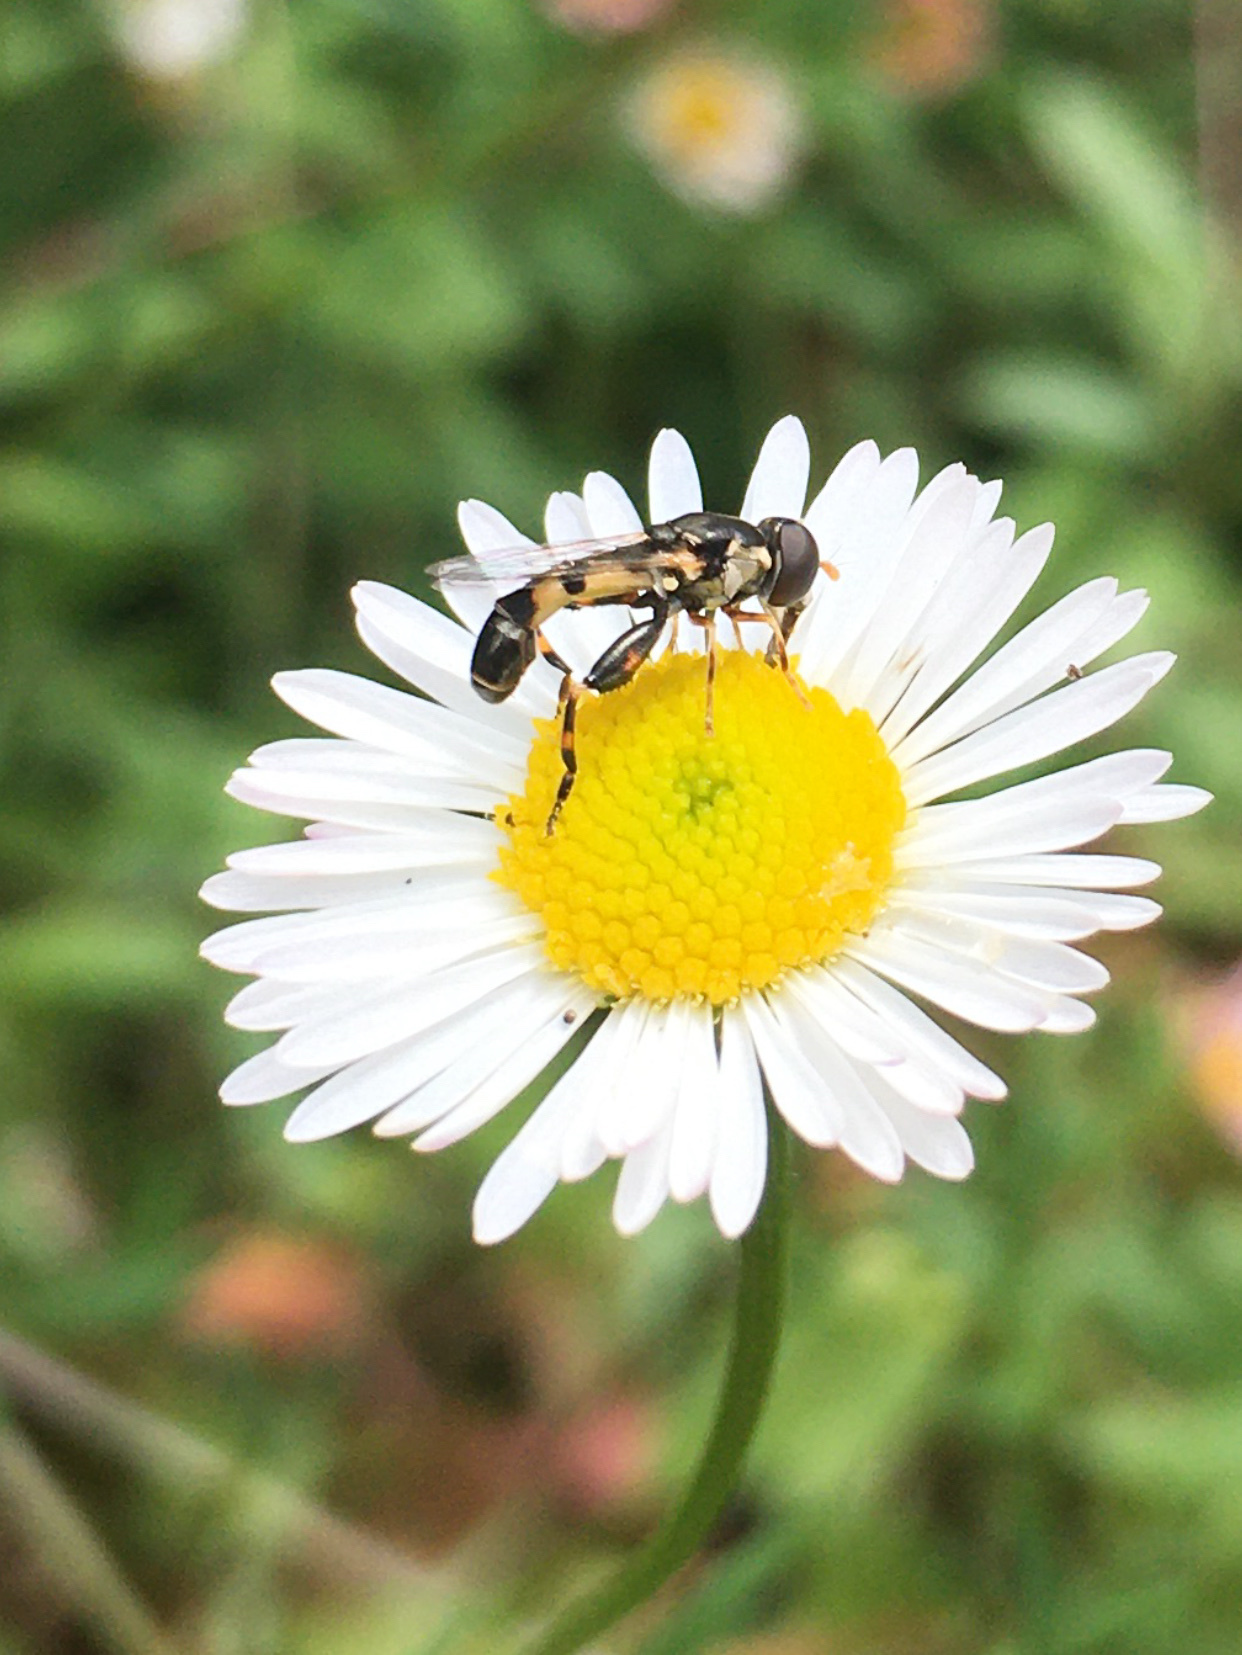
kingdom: Animalia
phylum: Arthropoda
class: Insecta
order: Diptera
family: Syrphidae
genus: Syritta
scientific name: Syritta pipiens
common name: Hover fly
